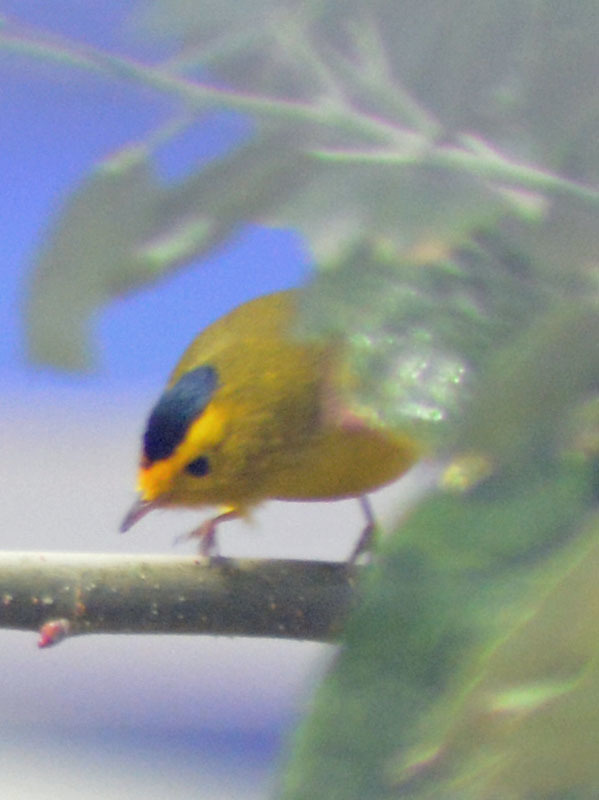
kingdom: Animalia
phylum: Chordata
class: Aves
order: Passeriformes
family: Parulidae
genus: Cardellina
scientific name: Cardellina pusilla
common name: Wilson's warbler
